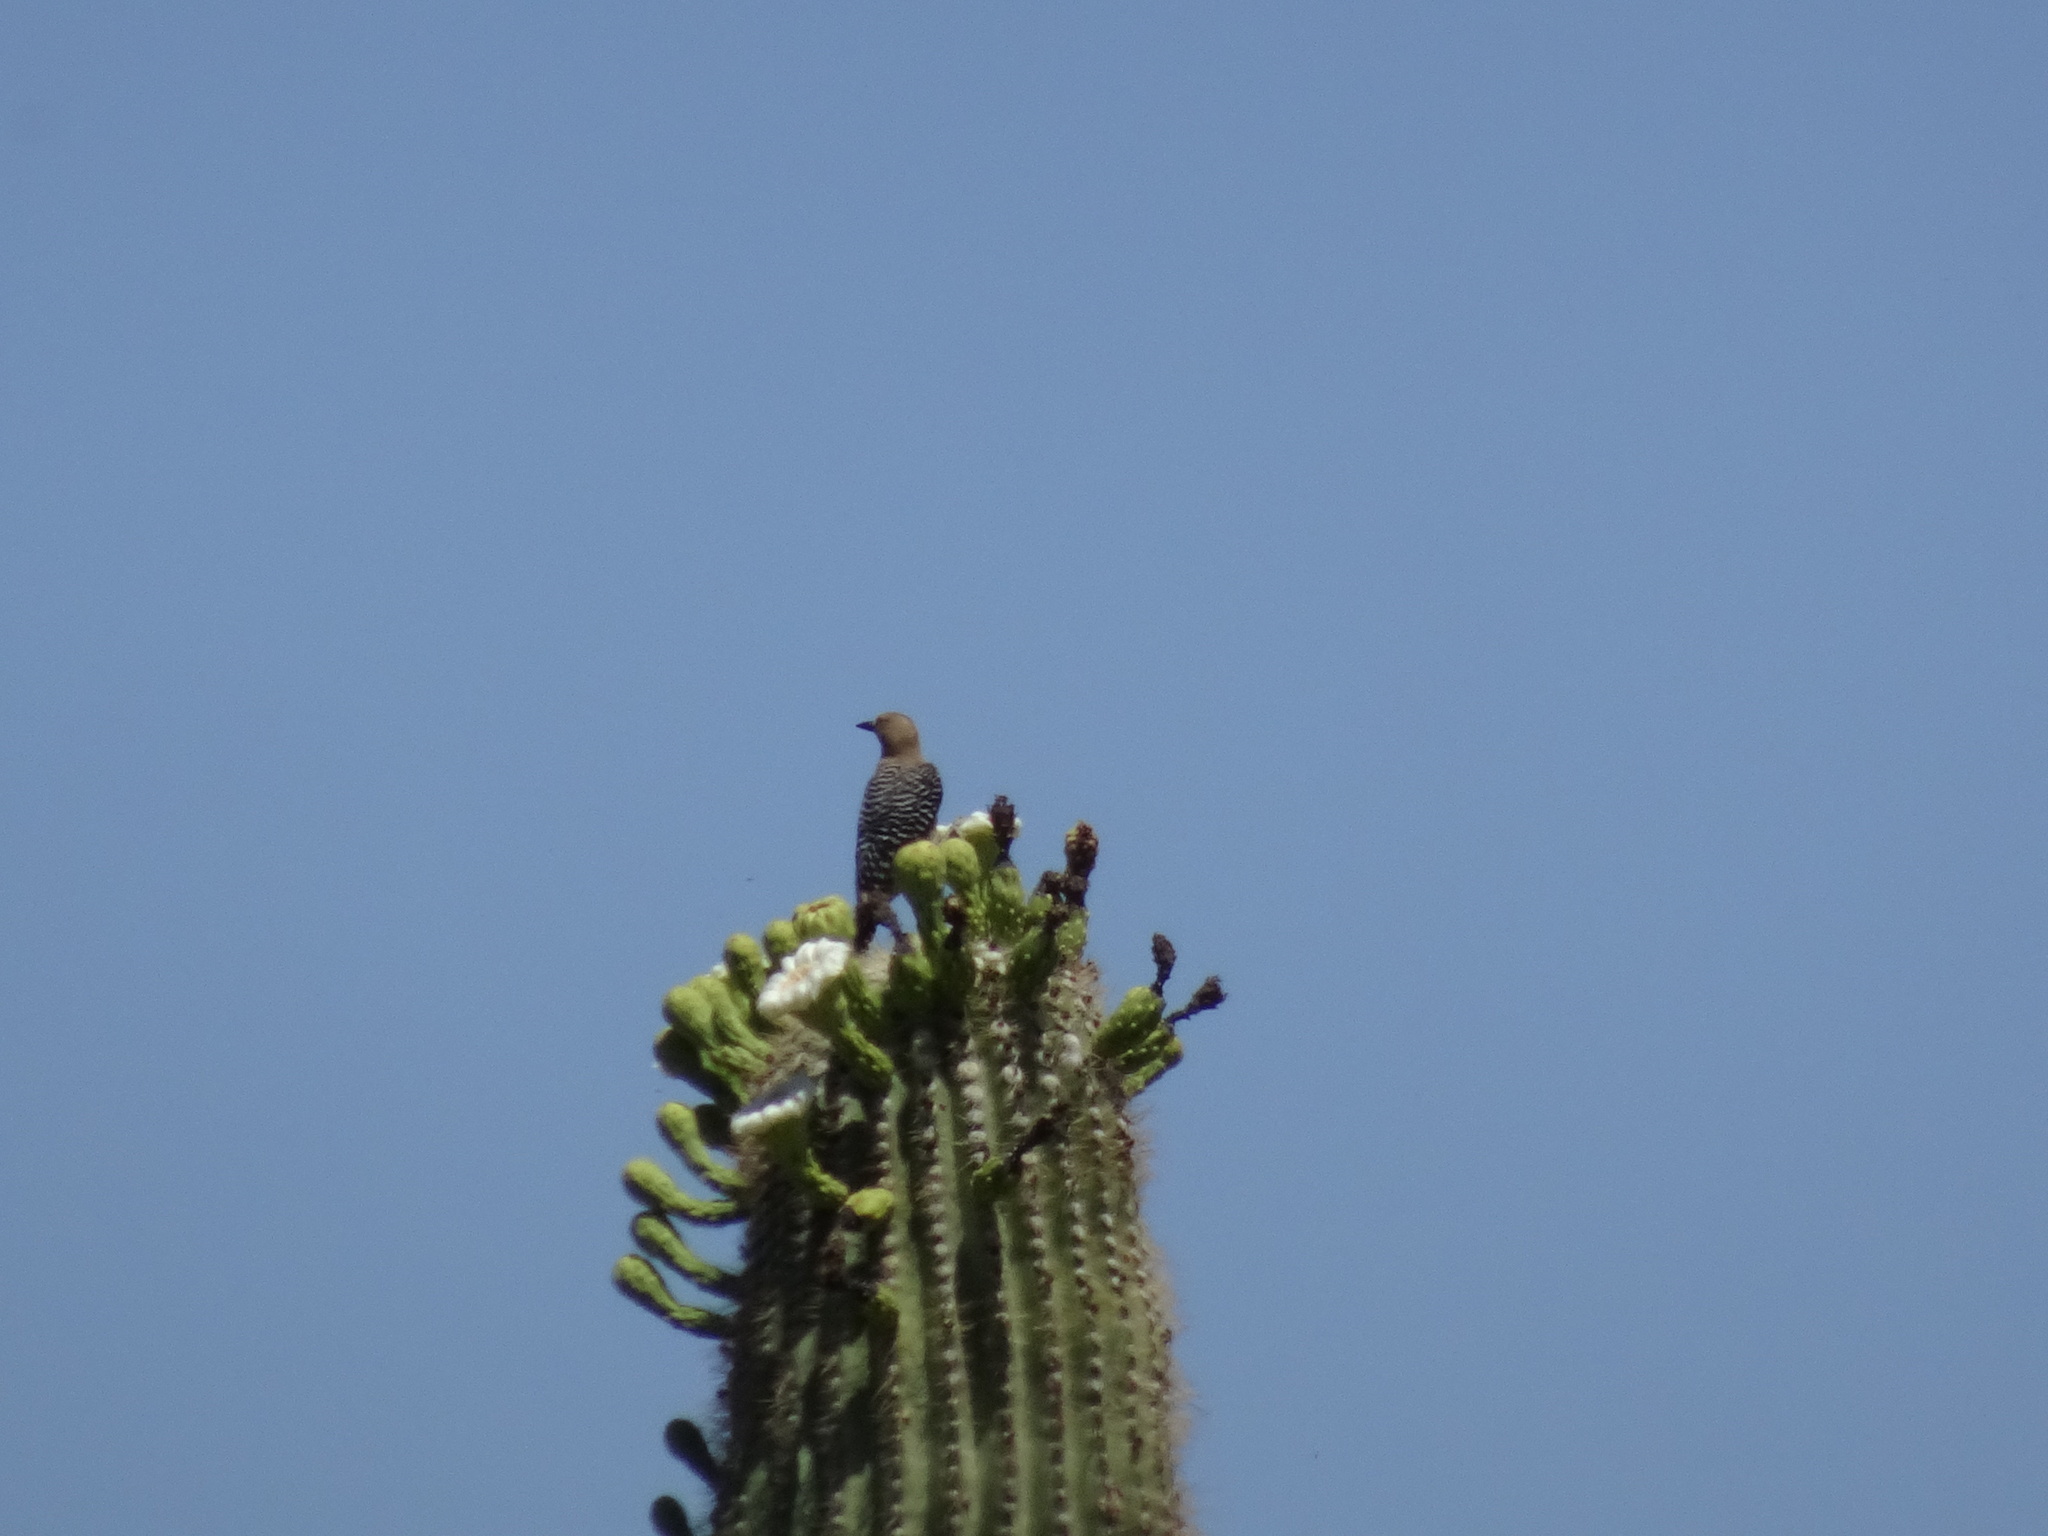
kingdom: Animalia
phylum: Chordata
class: Aves
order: Piciformes
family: Picidae
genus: Melanerpes
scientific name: Melanerpes uropygialis
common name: Gila woodpecker
